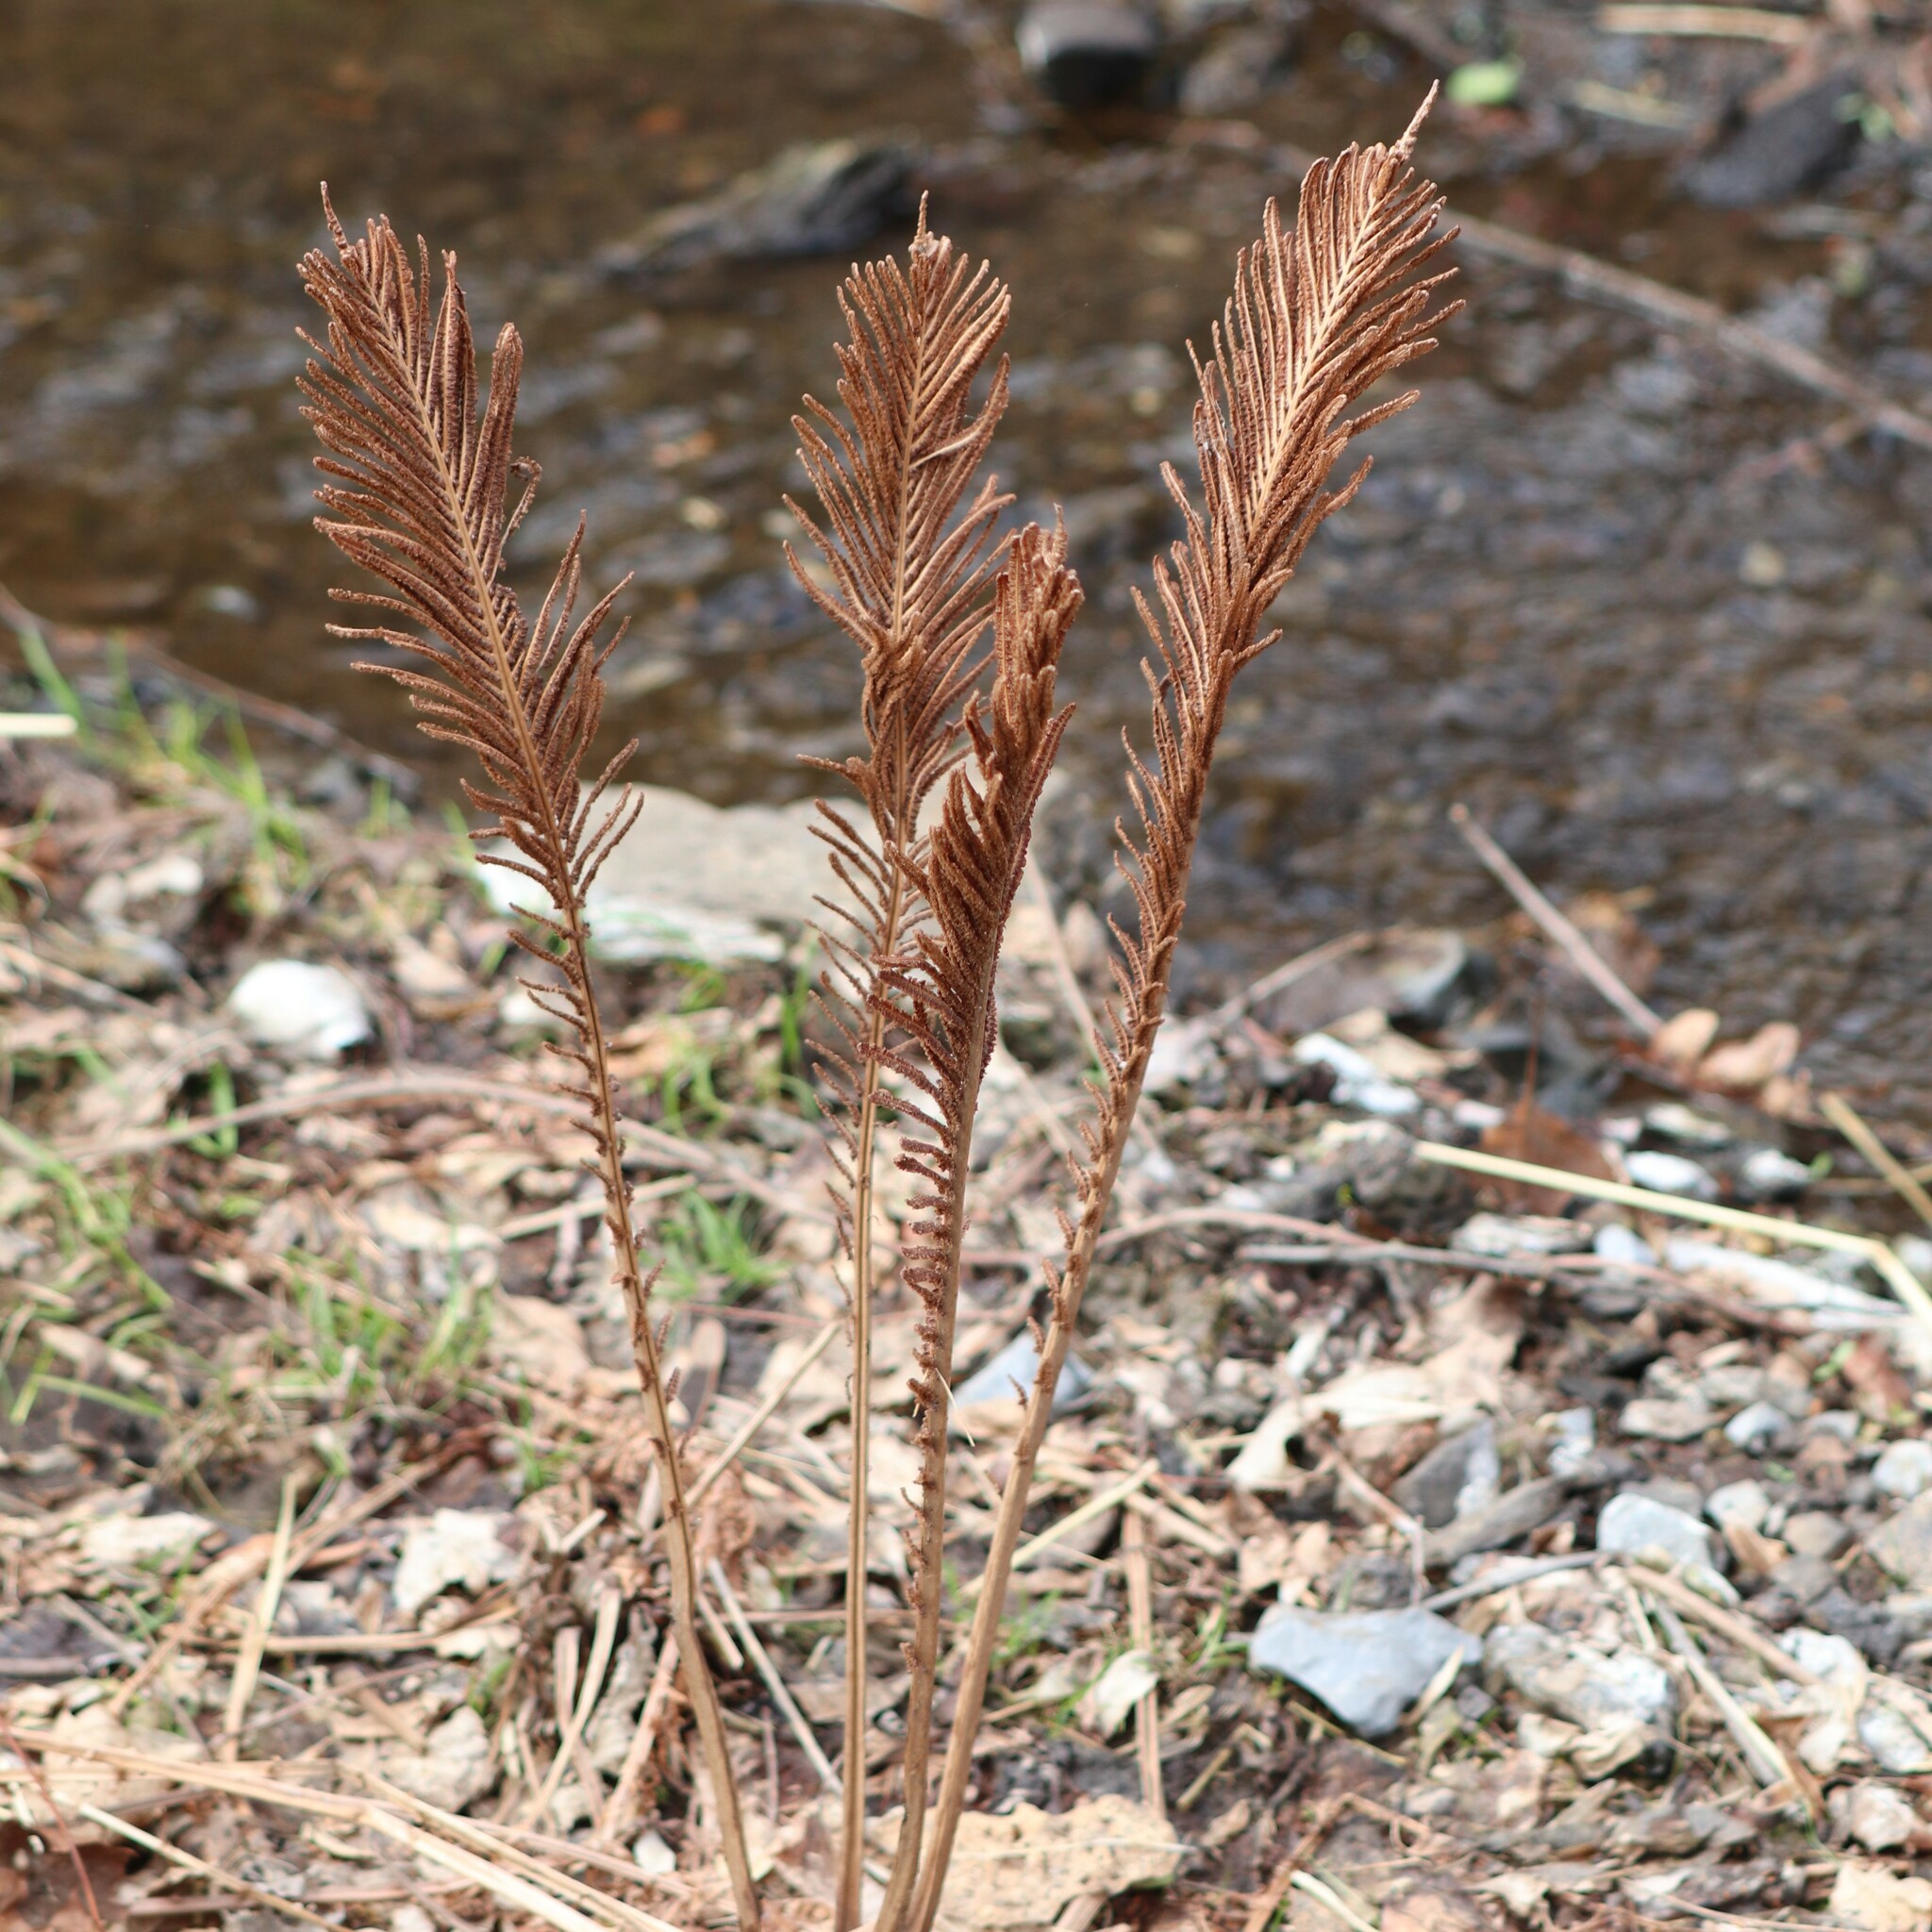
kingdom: Plantae
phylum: Tracheophyta
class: Polypodiopsida
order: Polypodiales
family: Onocleaceae
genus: Matteuccia
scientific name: Matteuccia struthiopteris
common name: Ostrich fern
